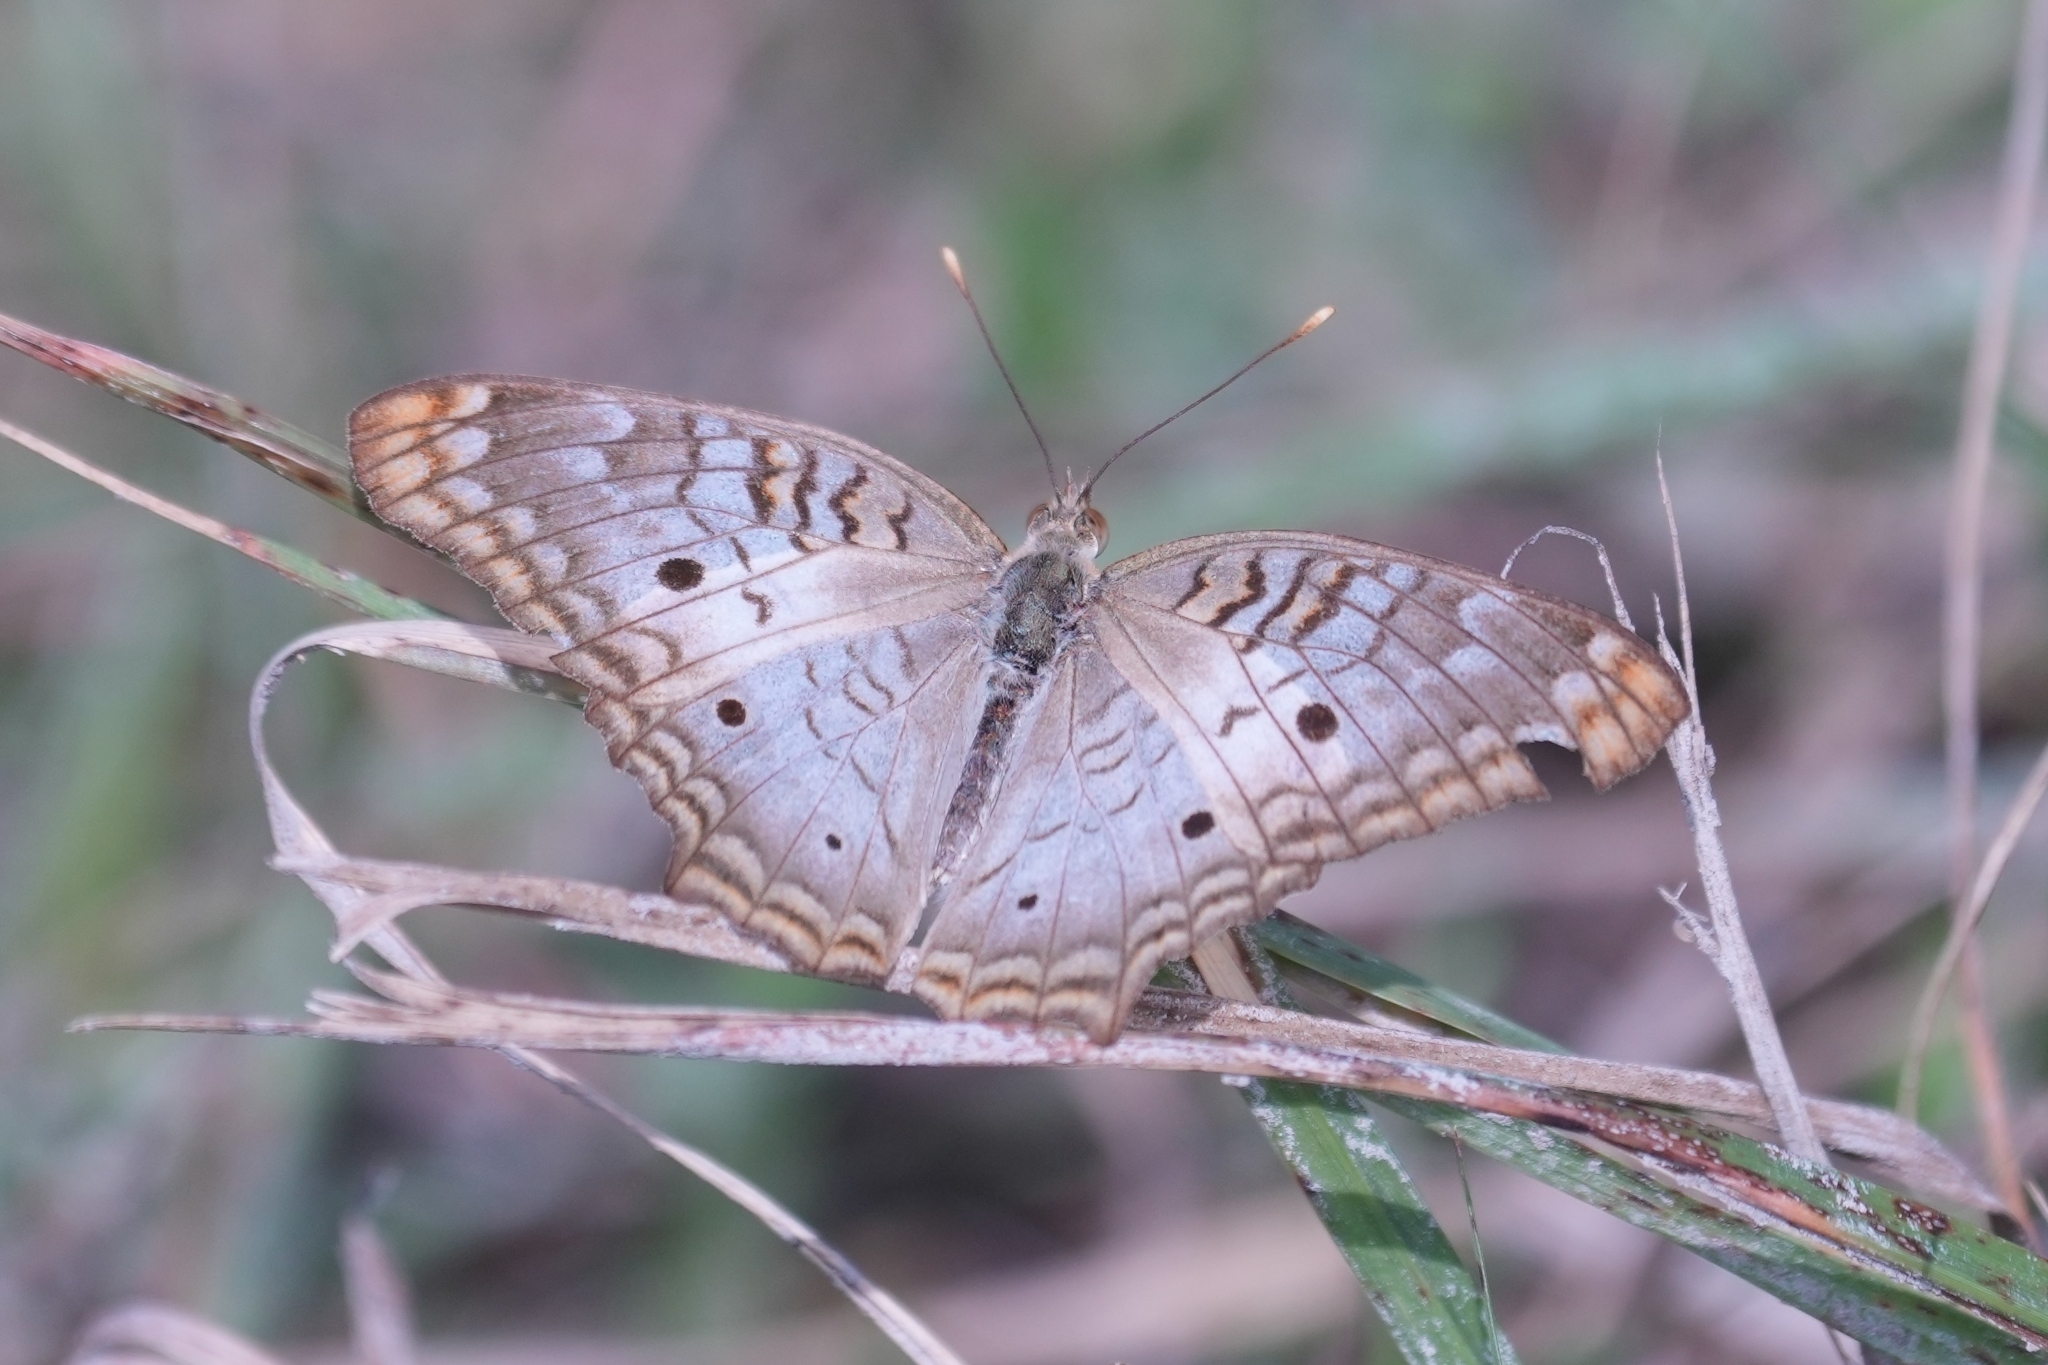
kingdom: Animalia
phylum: Arthropoda
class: Insecta
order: Lepidoptera
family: Nymphalidae
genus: Anartia
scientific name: Anartia jatrophae
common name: White peacock
